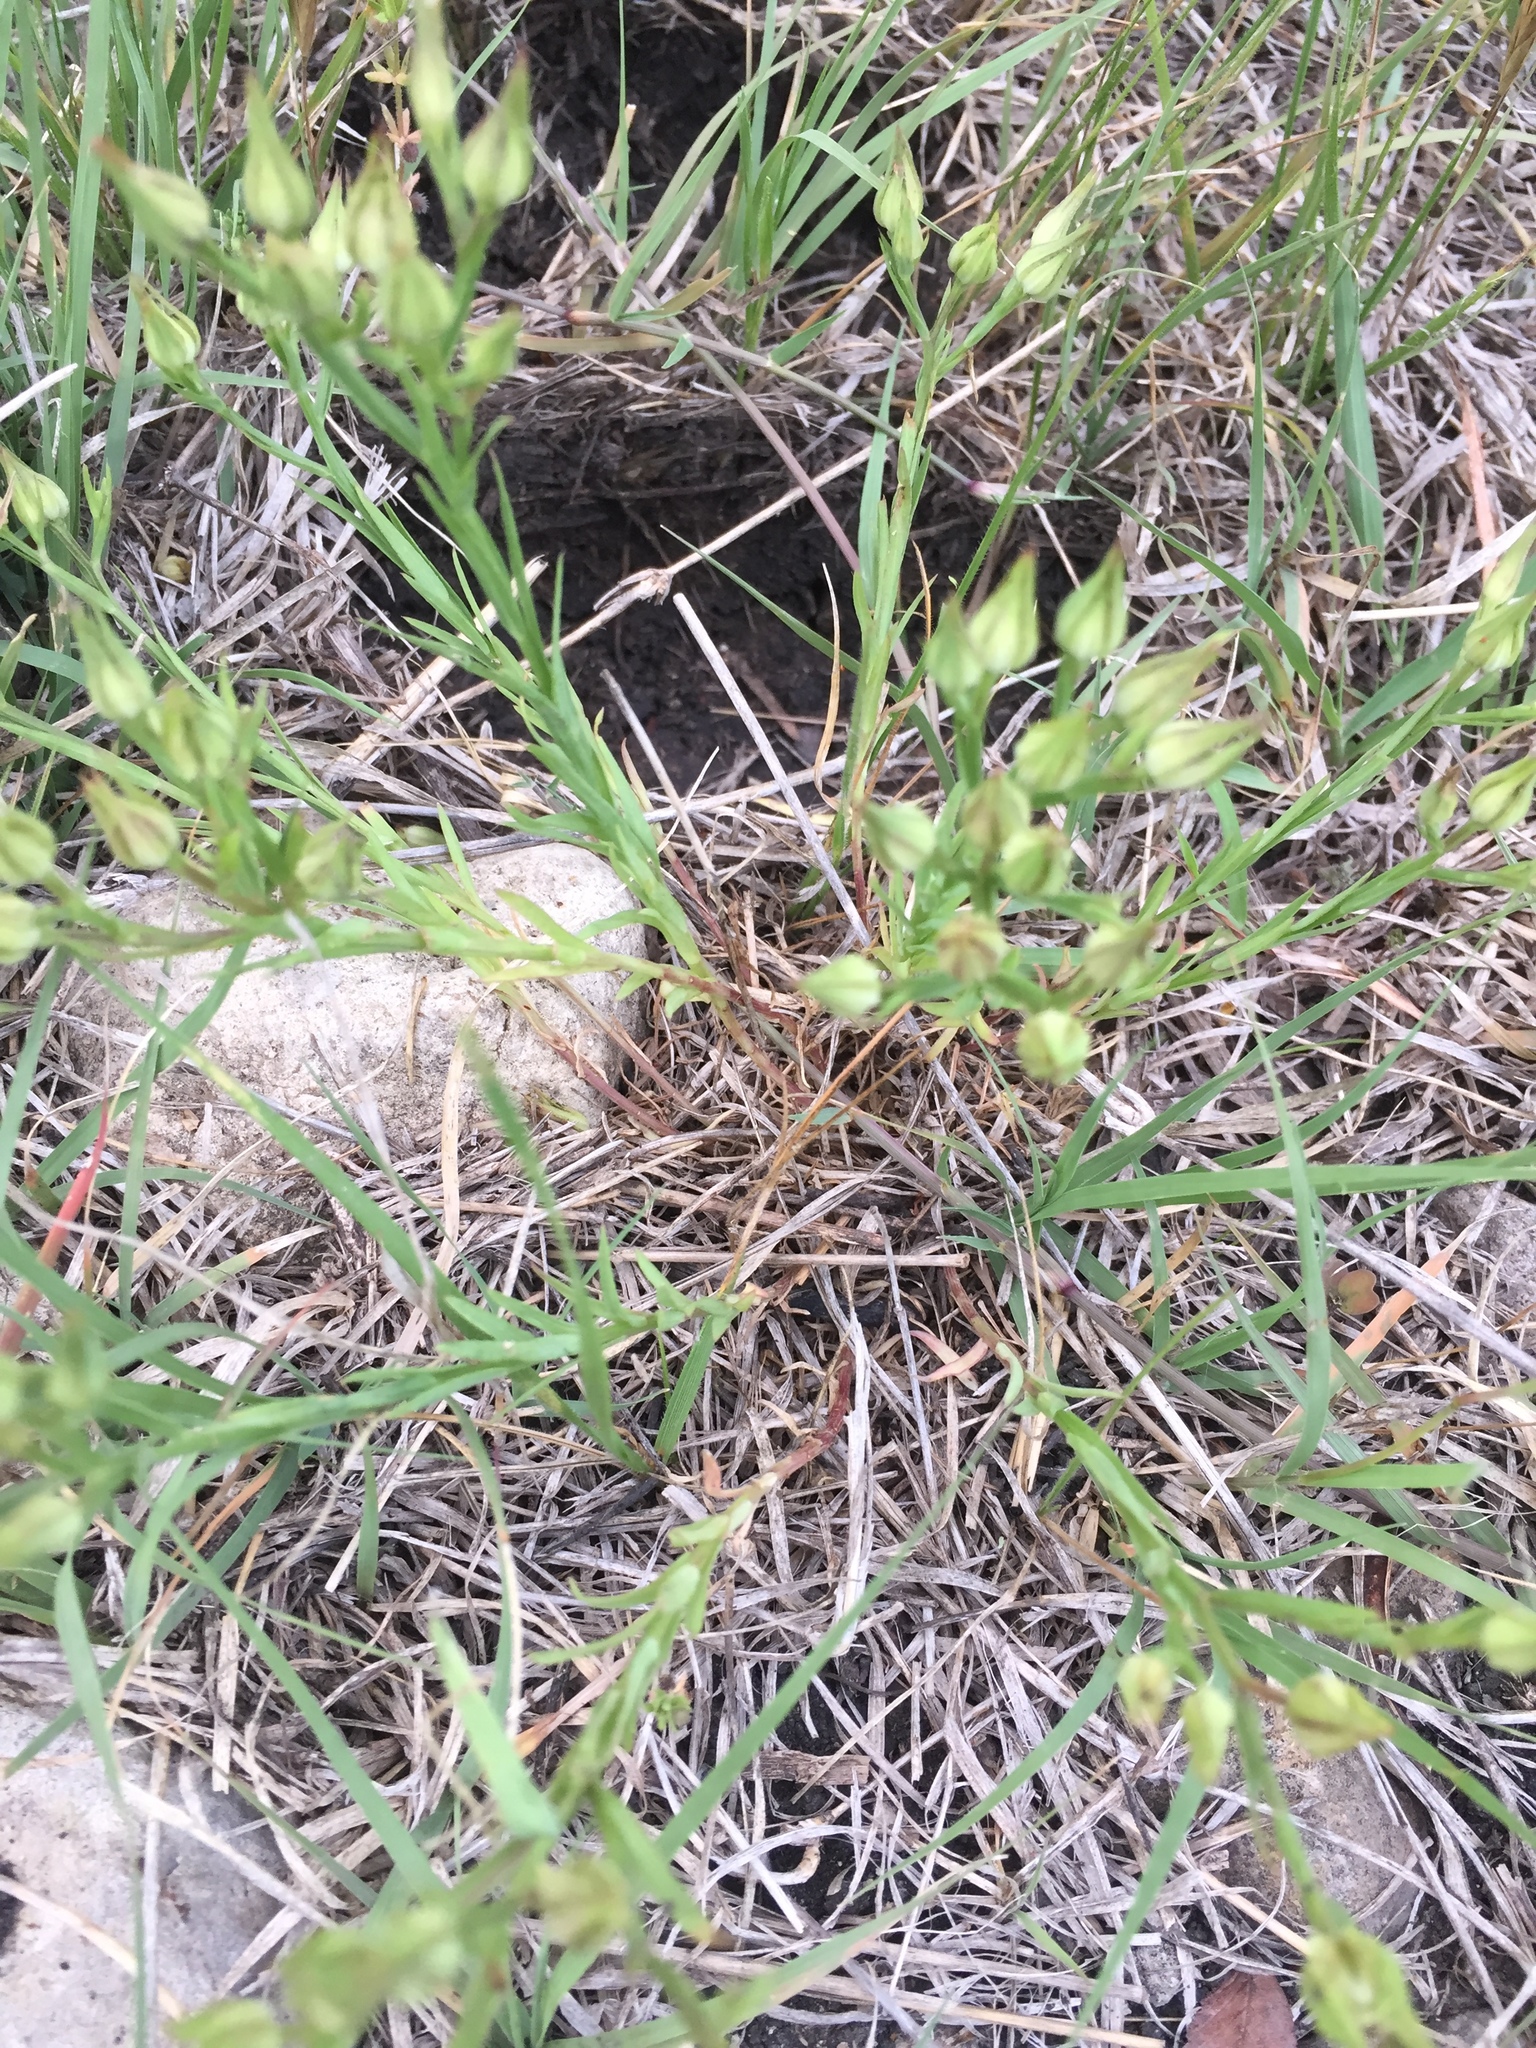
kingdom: Plantae
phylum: Tracheophyta
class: Magnoliopsida
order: Lamiales
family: Lamiaceae
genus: Warnockia
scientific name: Warnockia scutellarioides
